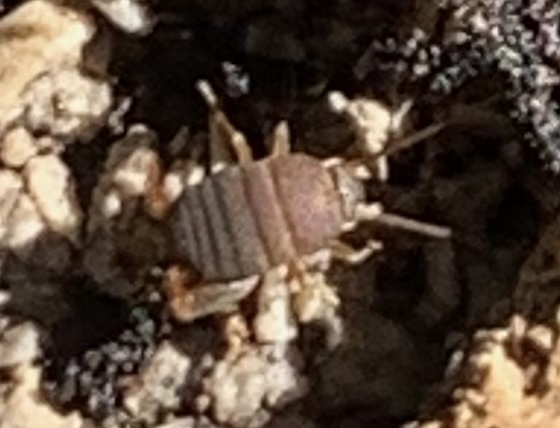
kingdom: Animalia
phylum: Arthropoda
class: Insecta
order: Orthoptera
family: Myrmecophilidae
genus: Myrmecophilus
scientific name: Myrmecophilus nebrascensis
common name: Nebraska ant cricket
